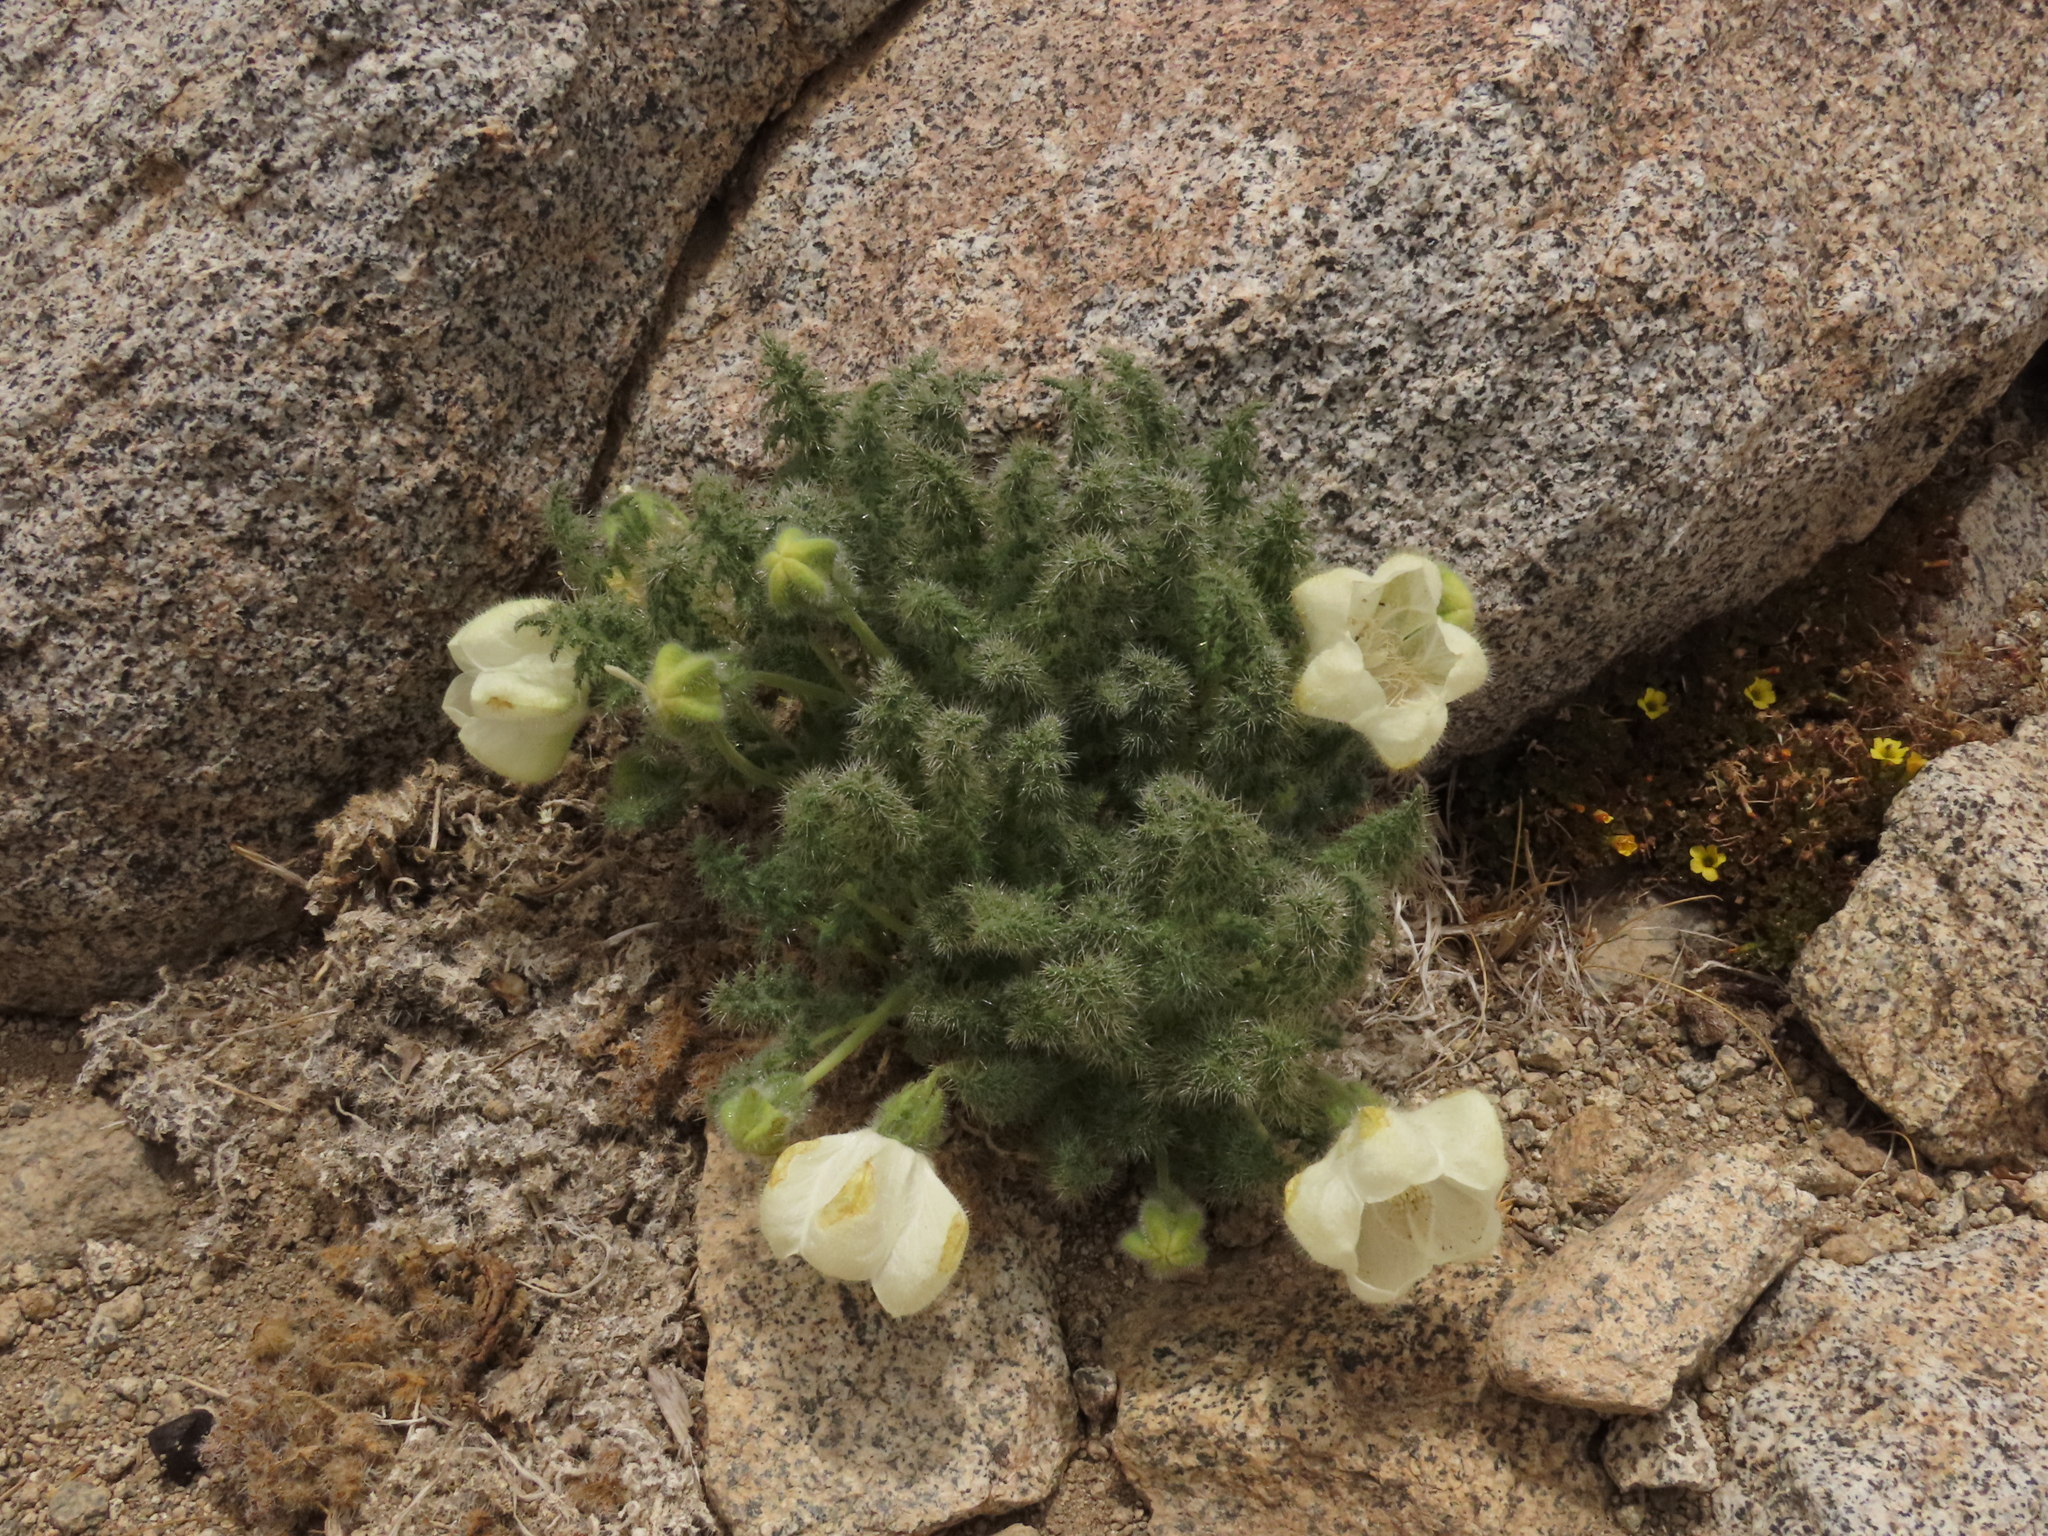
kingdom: Plantae
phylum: Tracheophyta
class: Magnoliopsida
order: Cornales
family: Loasaceae
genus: Caiophora
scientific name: Caiophora coronata
